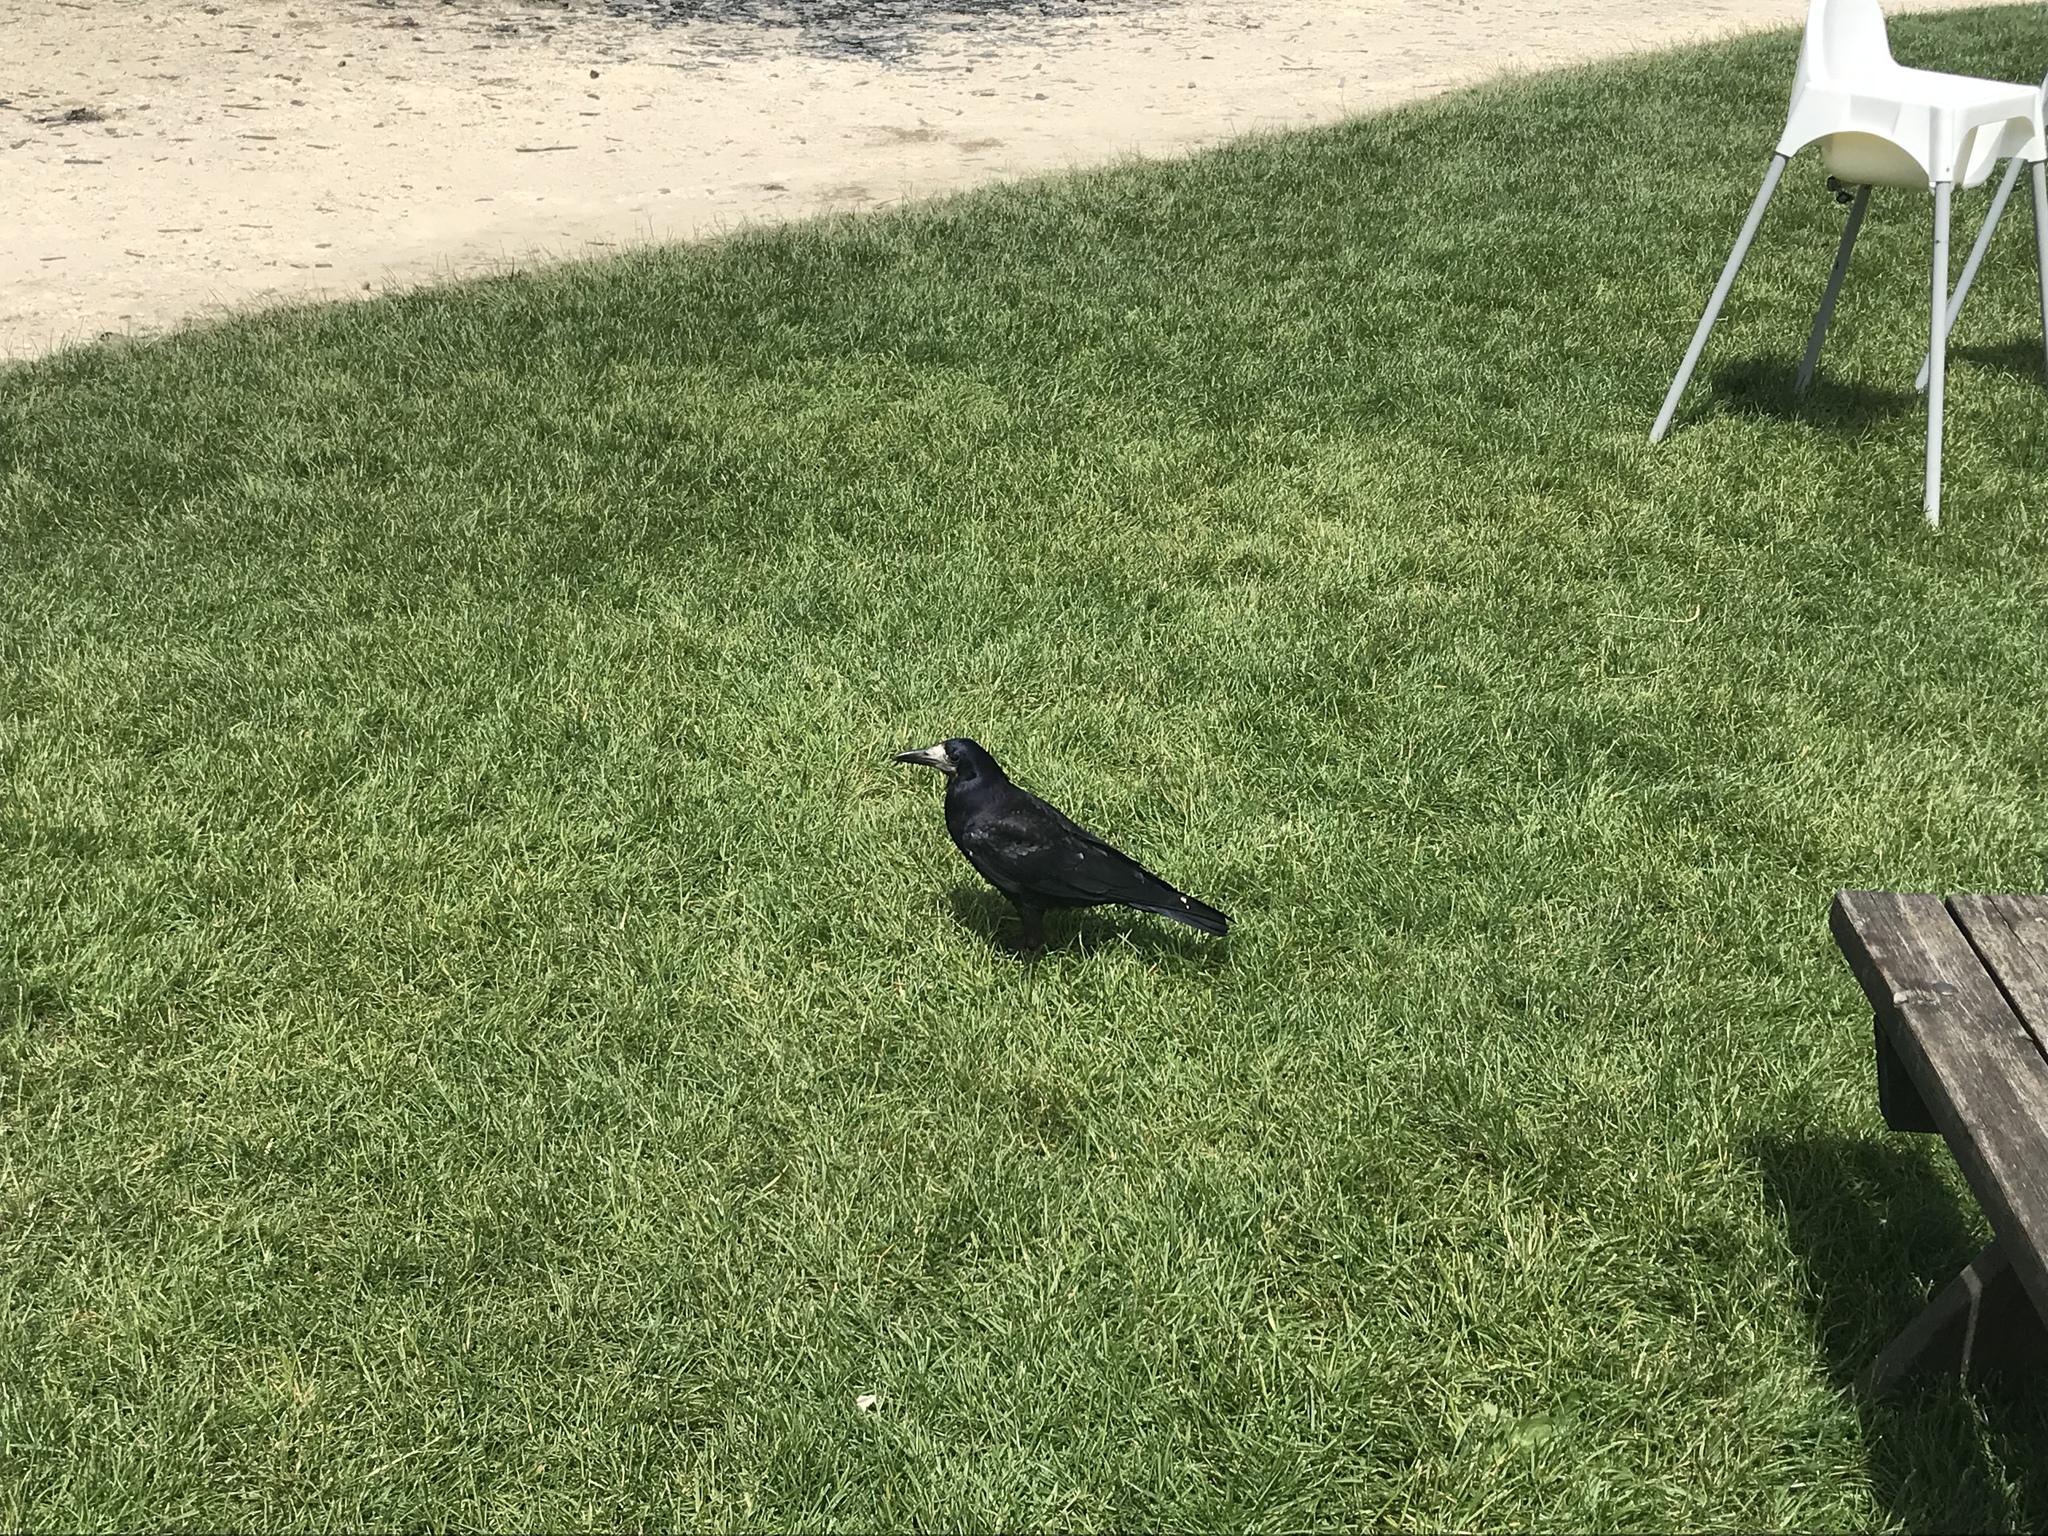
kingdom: Animalia
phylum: Chordata
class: Aves
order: Passeriformes
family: Corvidae
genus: Corvus
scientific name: Corvus frugilegus
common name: Rook
